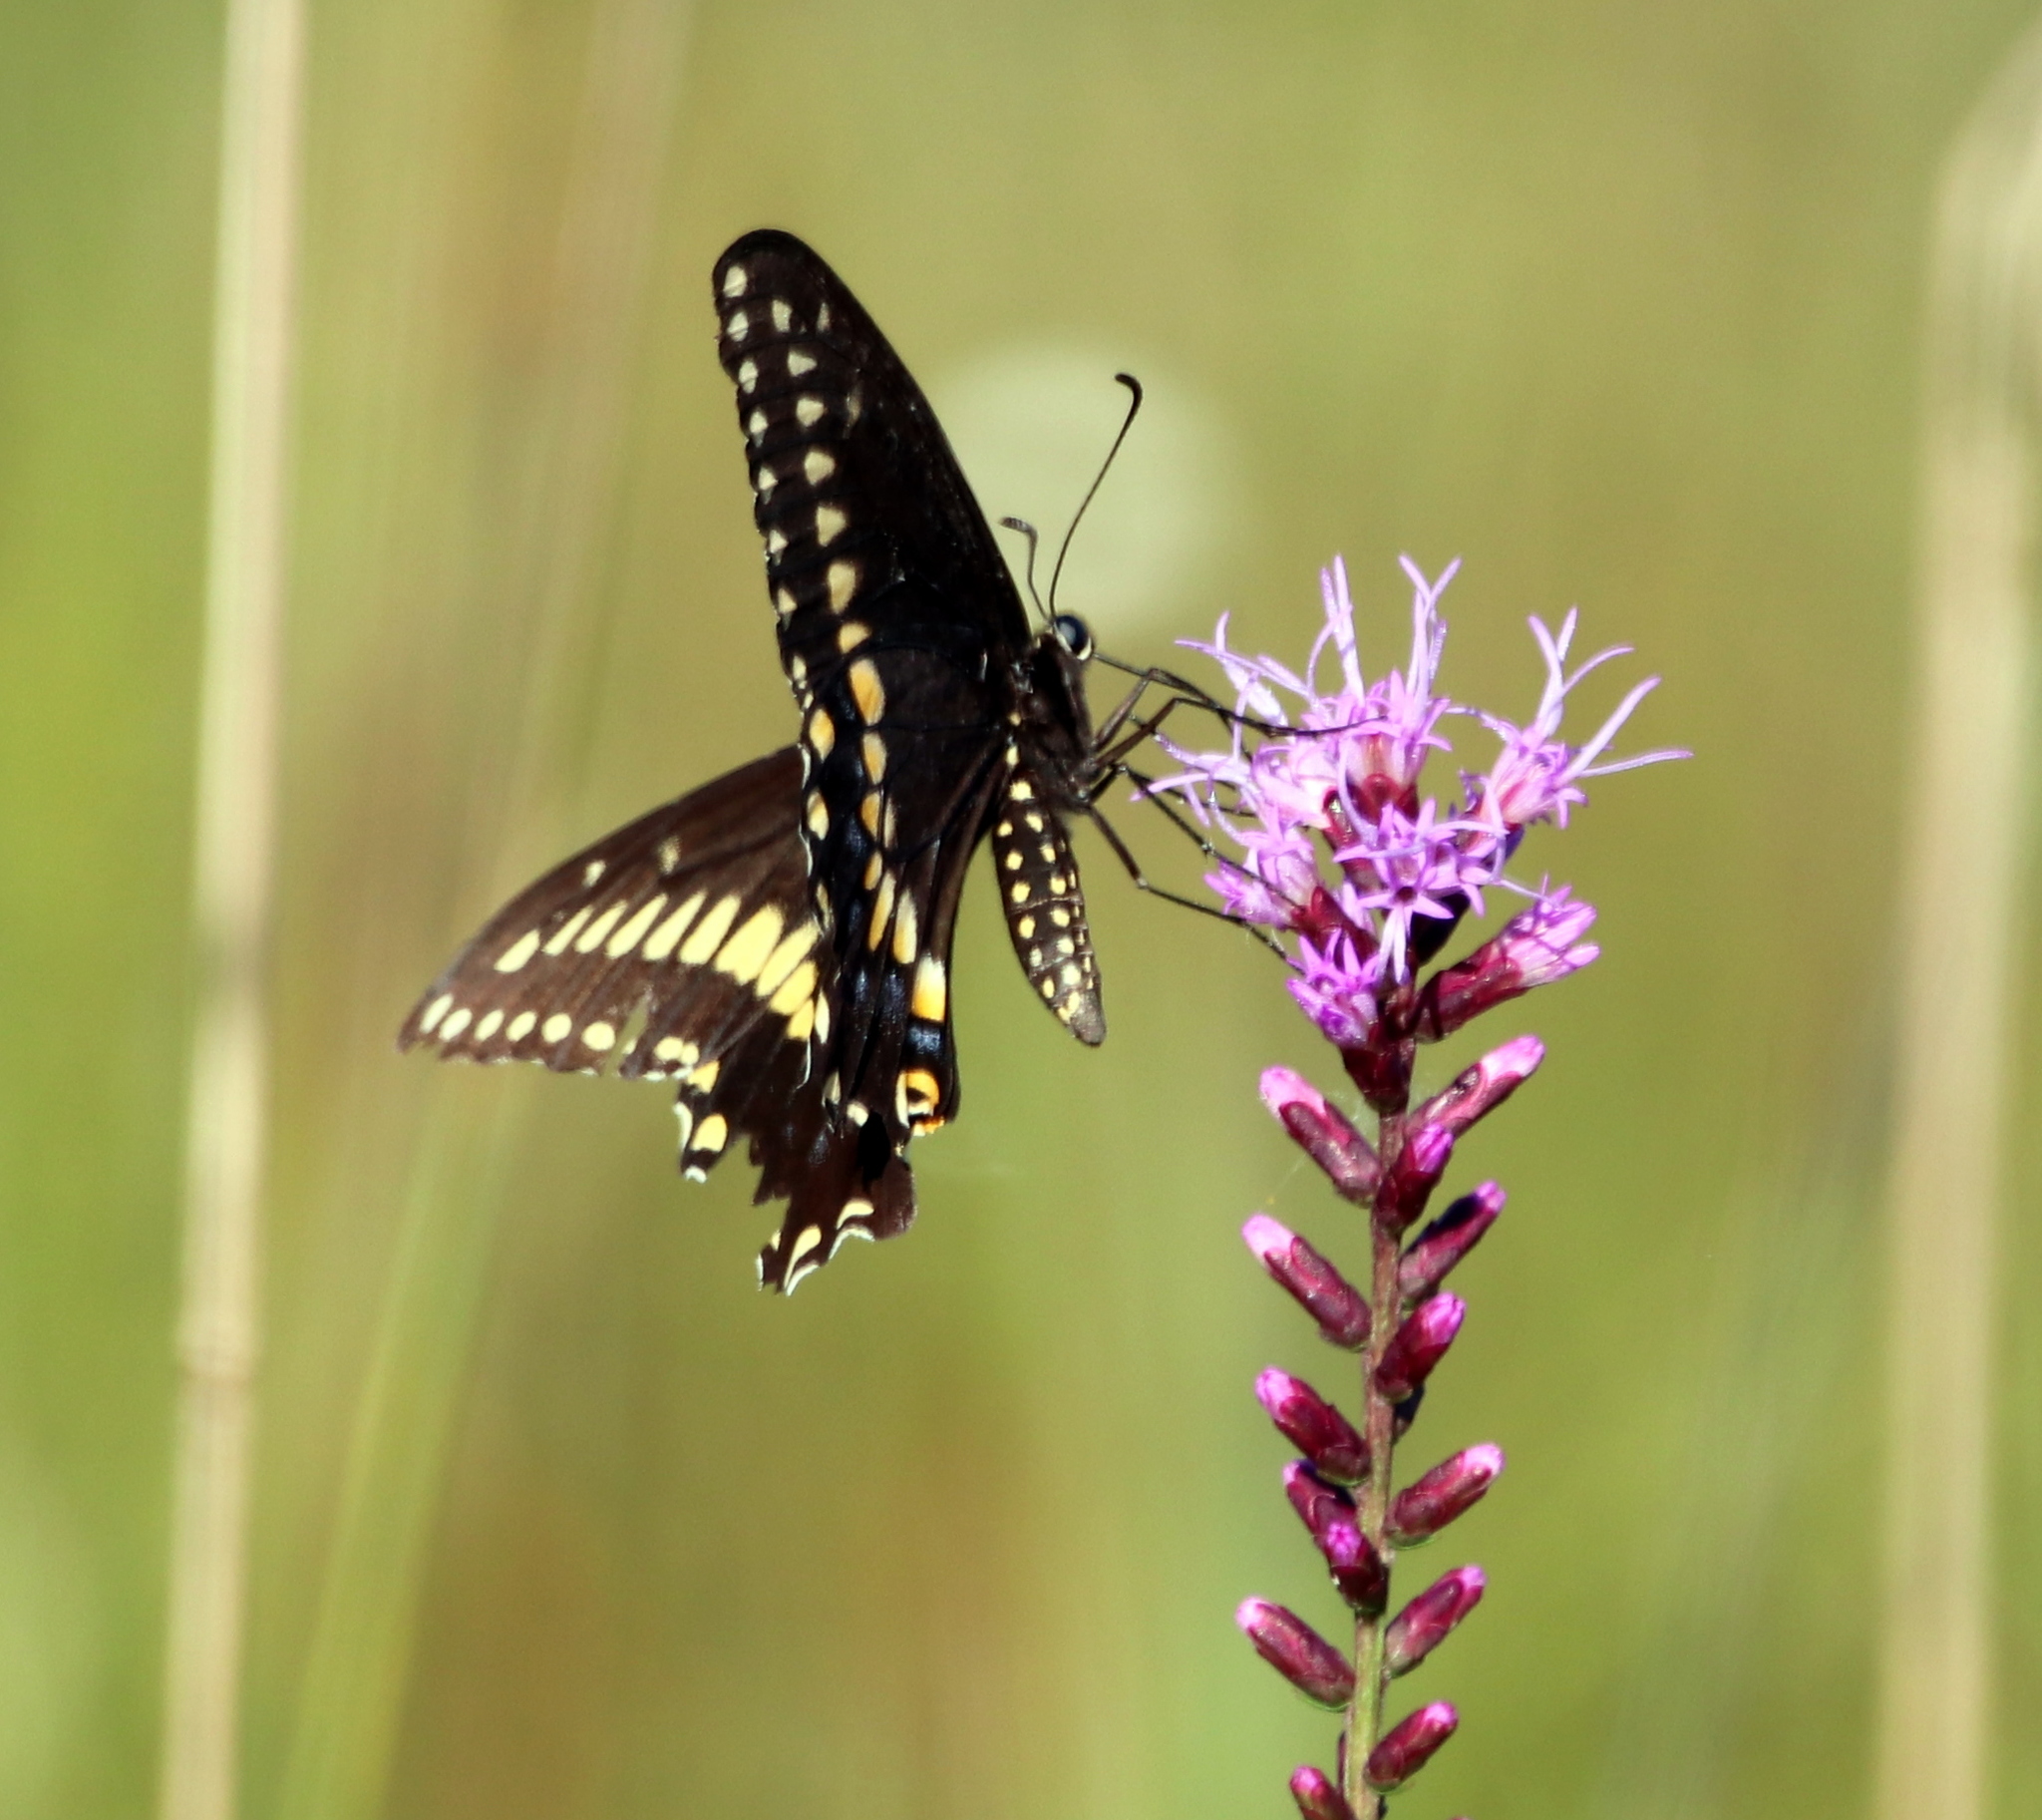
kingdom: Animalia
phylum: Arthropoda
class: Insecta
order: Lepidoptera
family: Papilionidae
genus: Papilio
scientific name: Papilio polyxenes
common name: Black swallowtail
